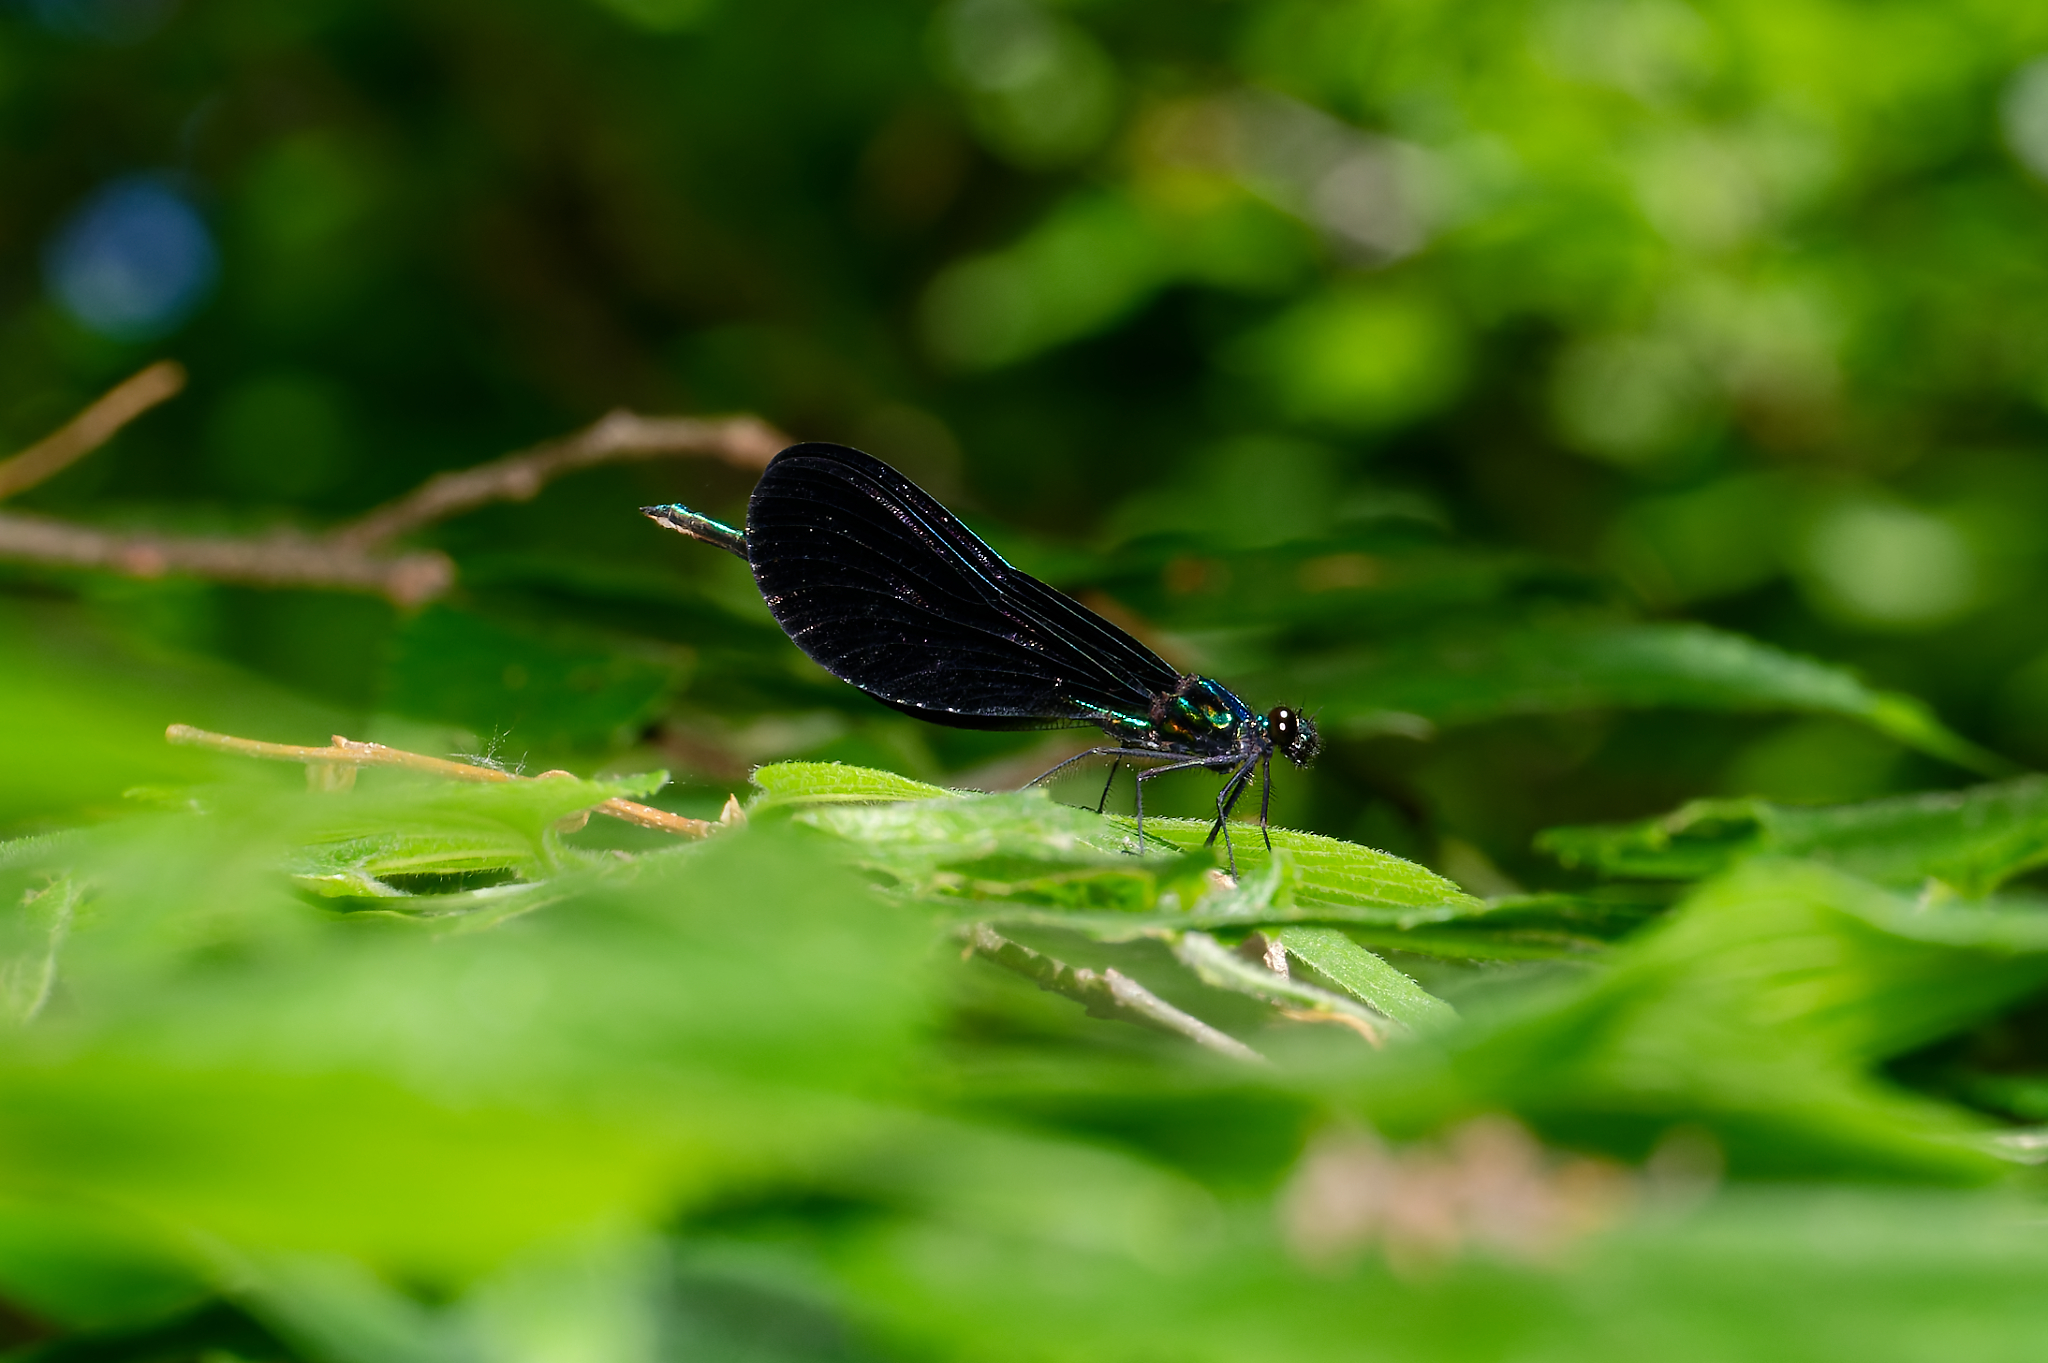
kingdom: Animalia
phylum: Arthropoda
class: Insecta
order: Odonata
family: Calopterygidae
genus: Calopteryx
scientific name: Calopteryx maculata
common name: Ebony jewelwing
